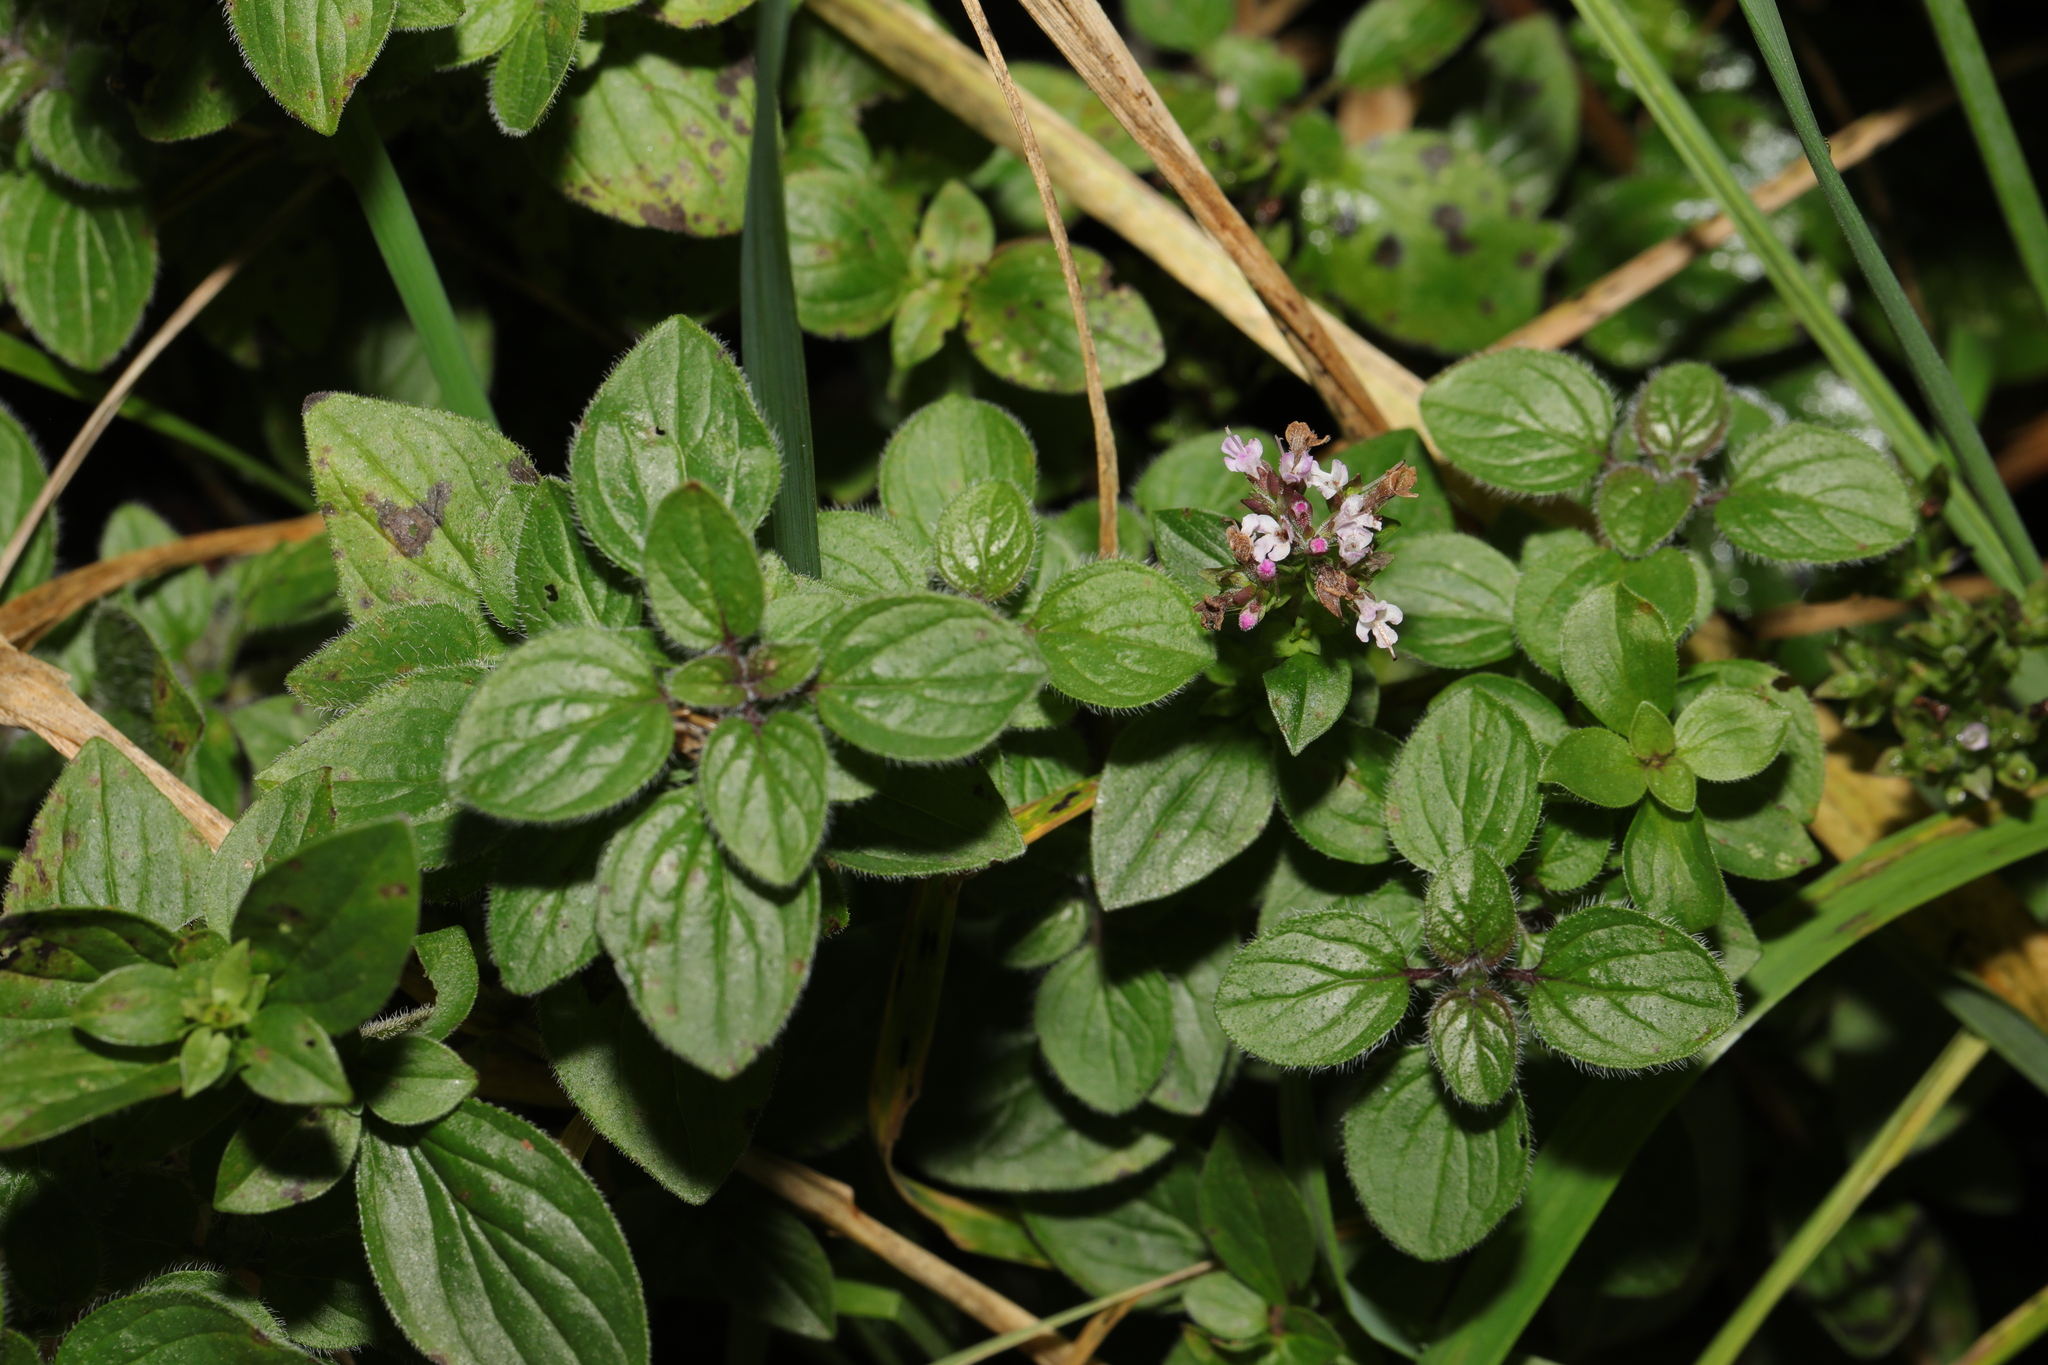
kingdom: Plantae
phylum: Tracheophyta
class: Magnoliopsida
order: Lamiales
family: Lamiaceae
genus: Origanum
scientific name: Origanum vulgare
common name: Wild marjoram
